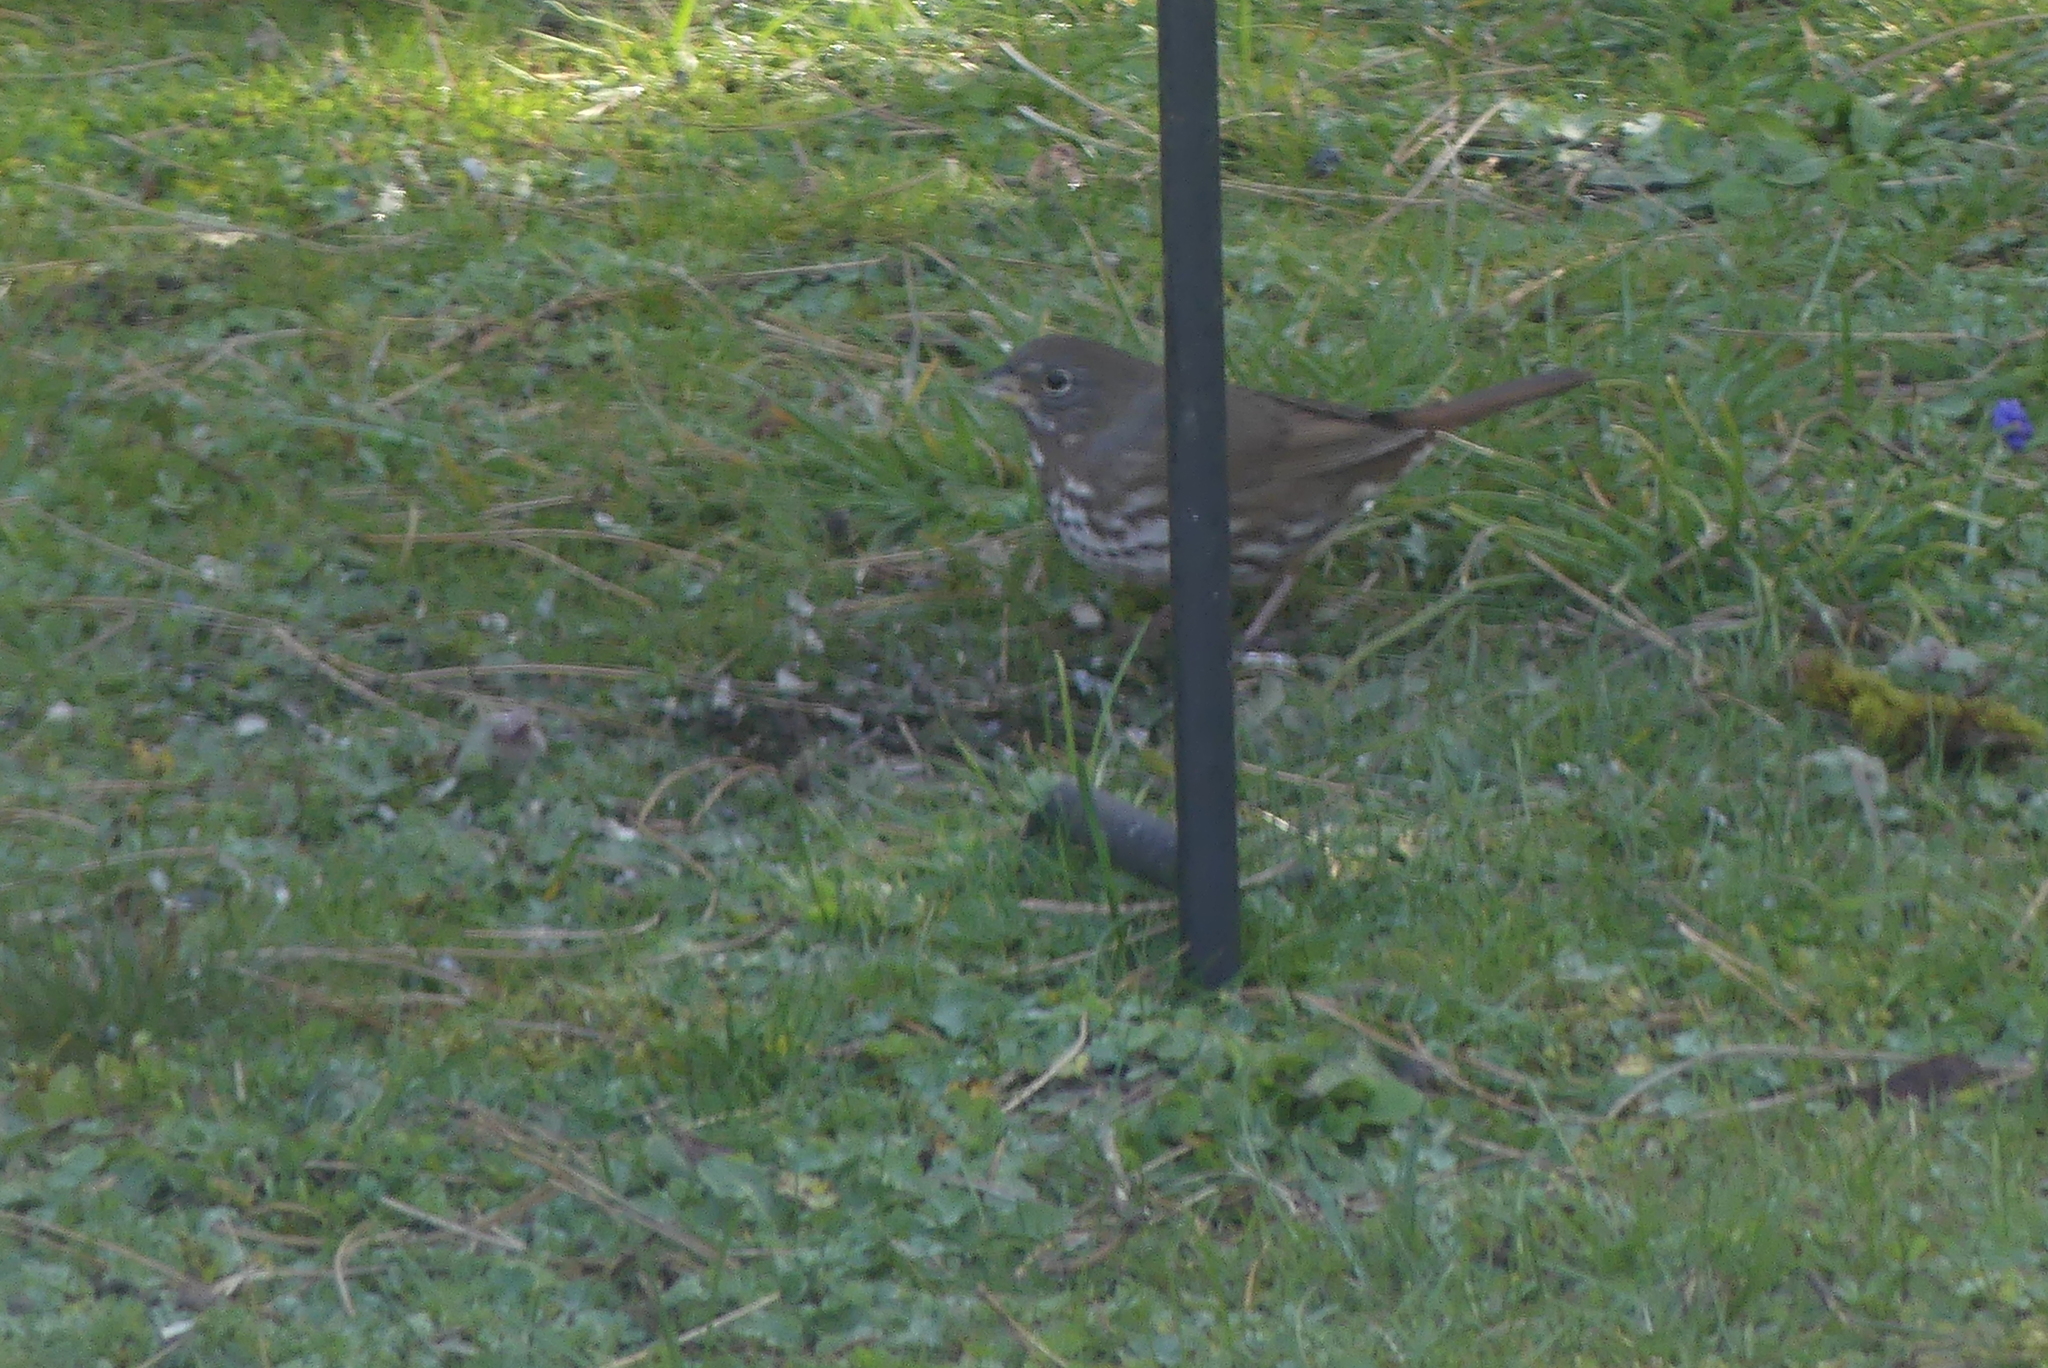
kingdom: Animalia
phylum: Chordata
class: Aves
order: Passeriformes
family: Passerellidae
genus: Passerella
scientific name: Passerella iliaca
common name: Fox sparrow
